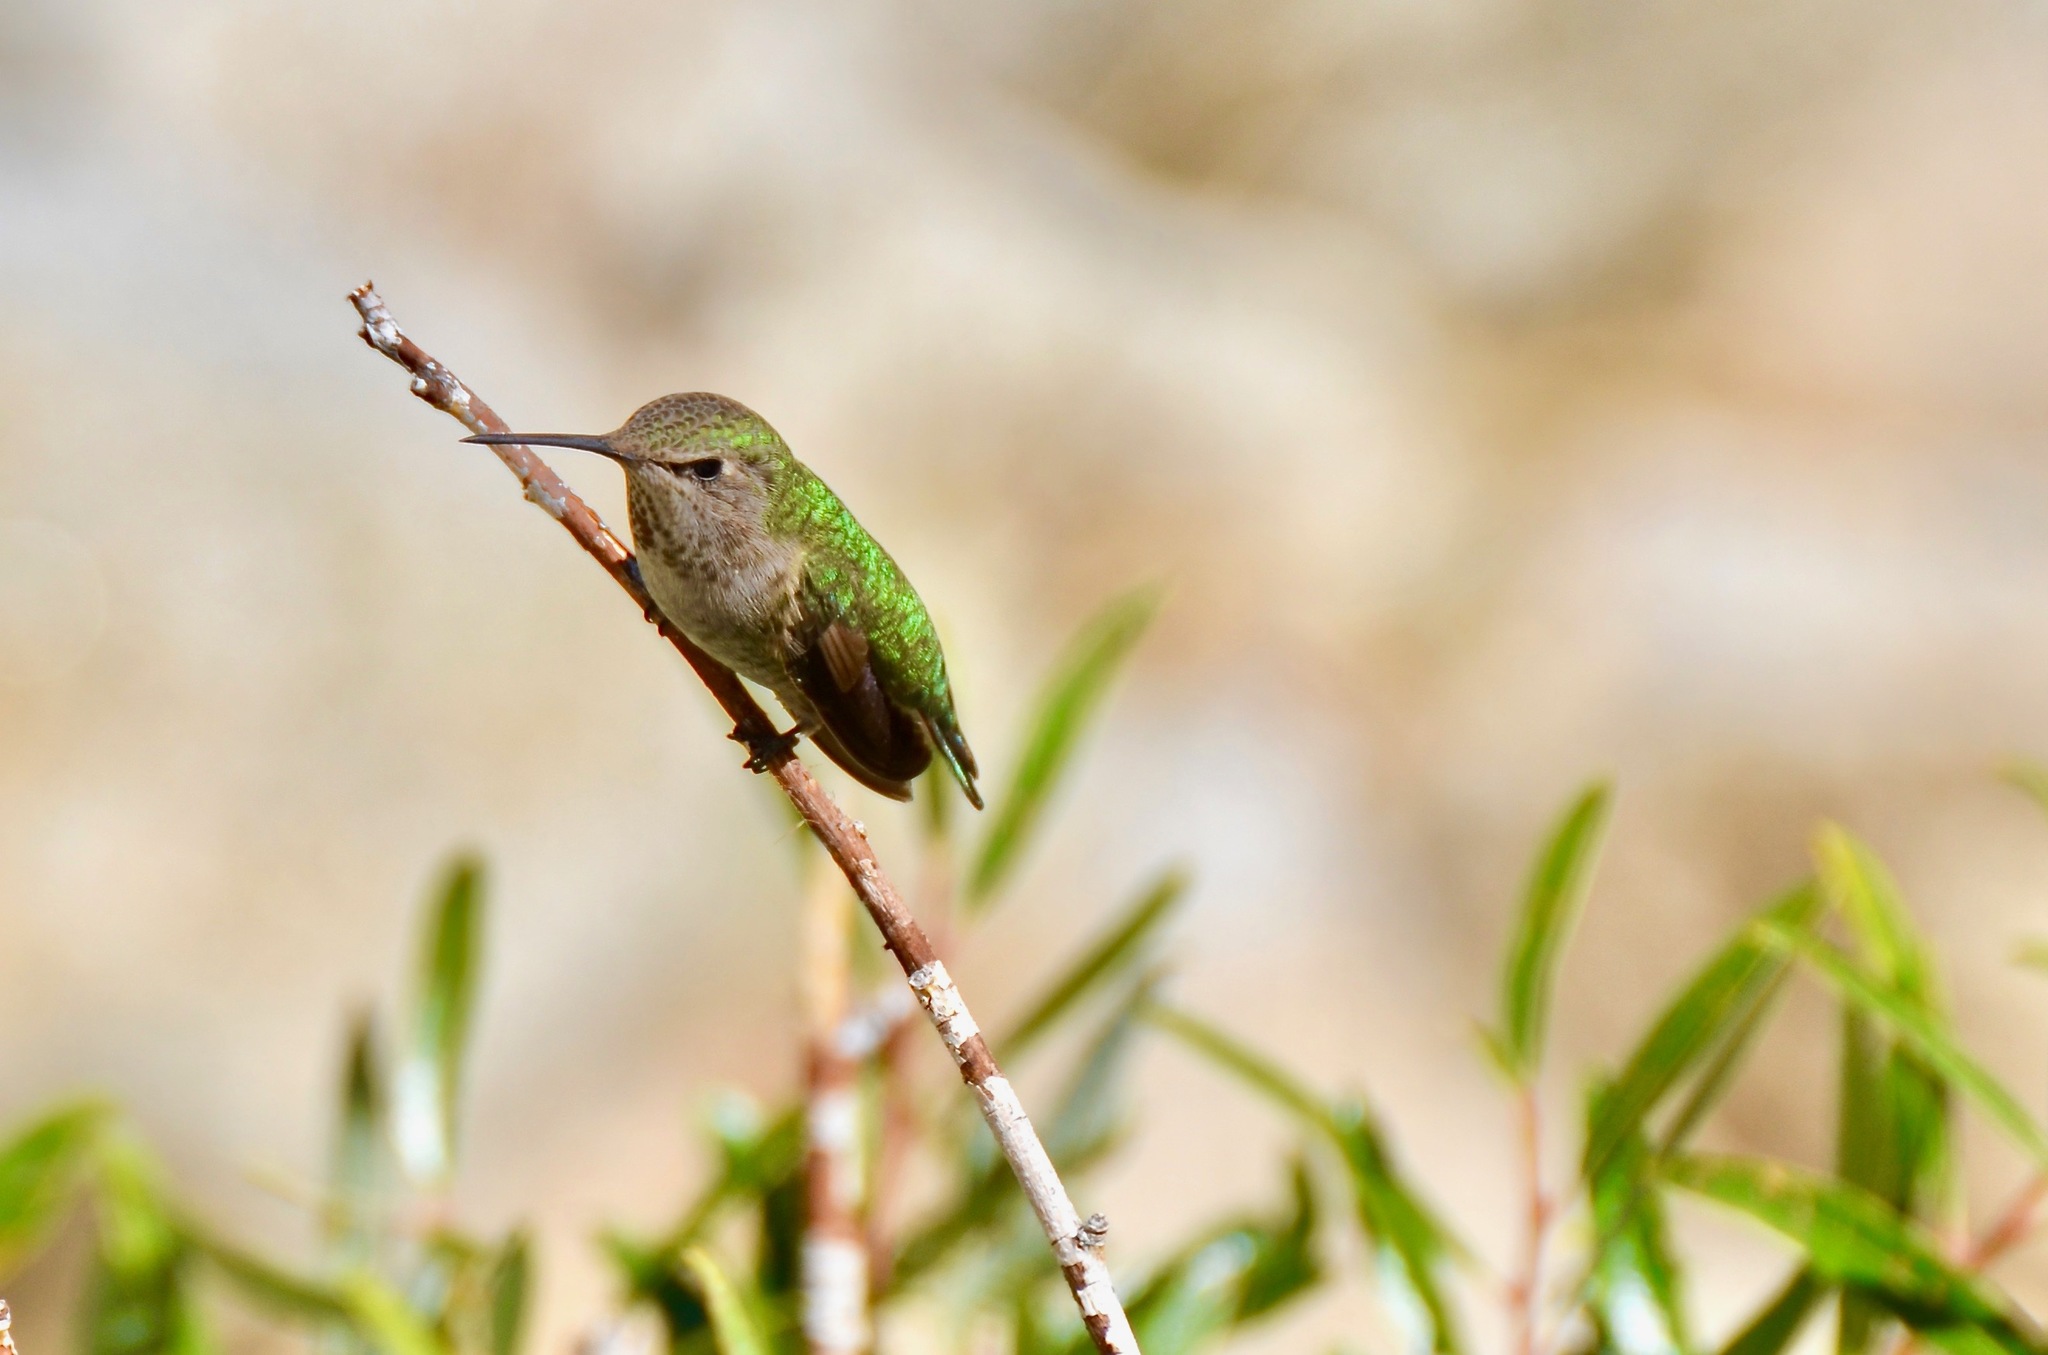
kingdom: Animalia
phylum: Chordata
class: Aves
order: Apodiformes
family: Trochilidae
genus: Calypte
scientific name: Calypte anna
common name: Anna's hummingbird
